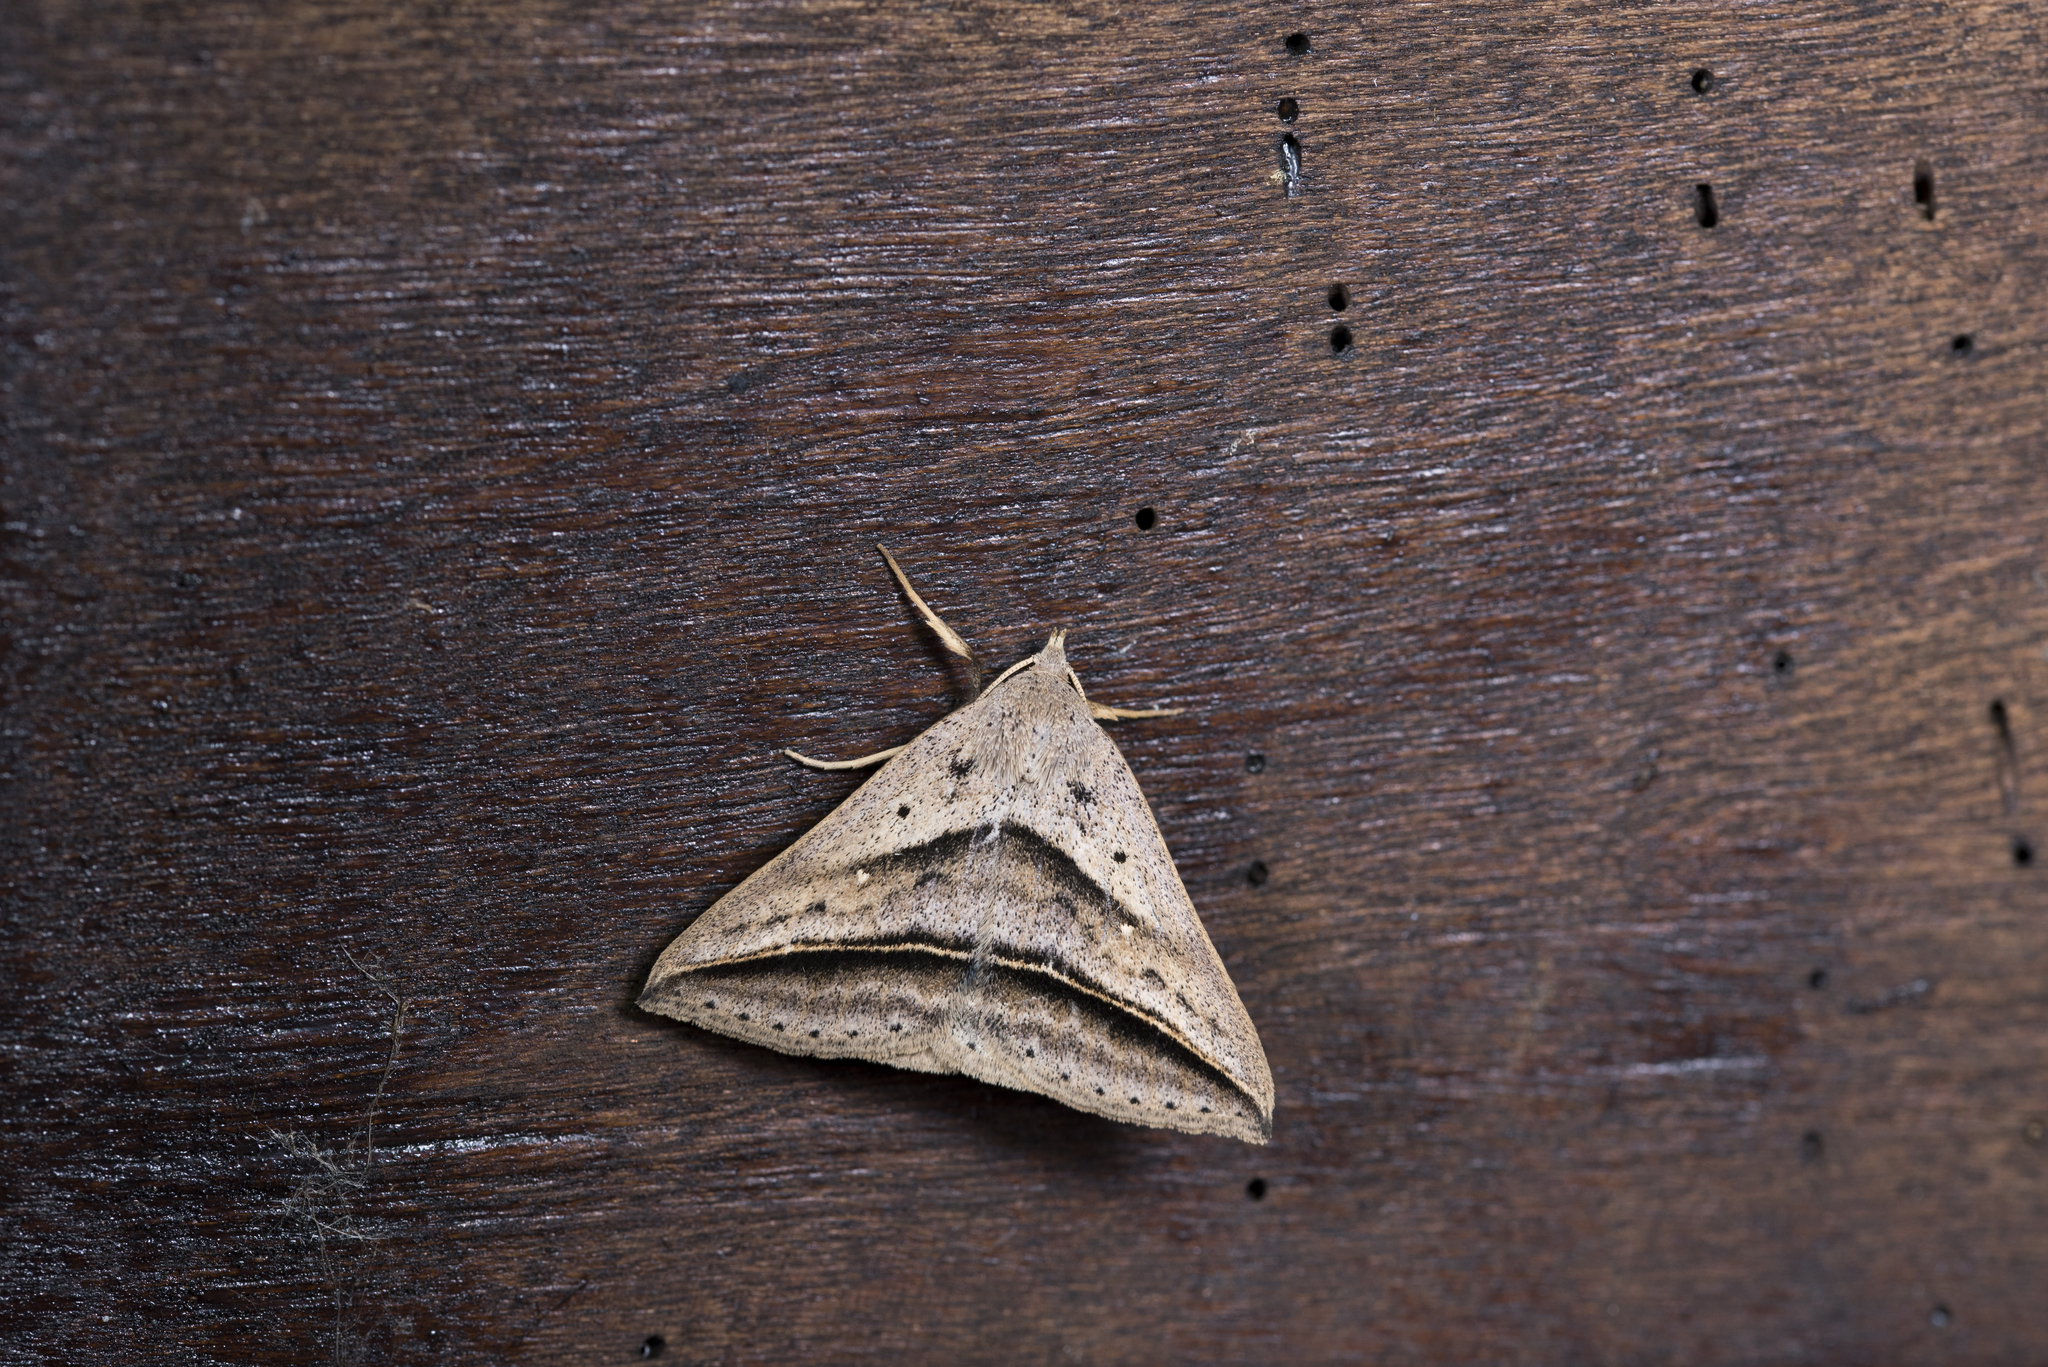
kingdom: Animalia
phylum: Arthropoda
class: Insecta
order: Lepidoptera
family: Erebidae
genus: Blasticorhinus
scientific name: Blasticorhinus bifasciata
